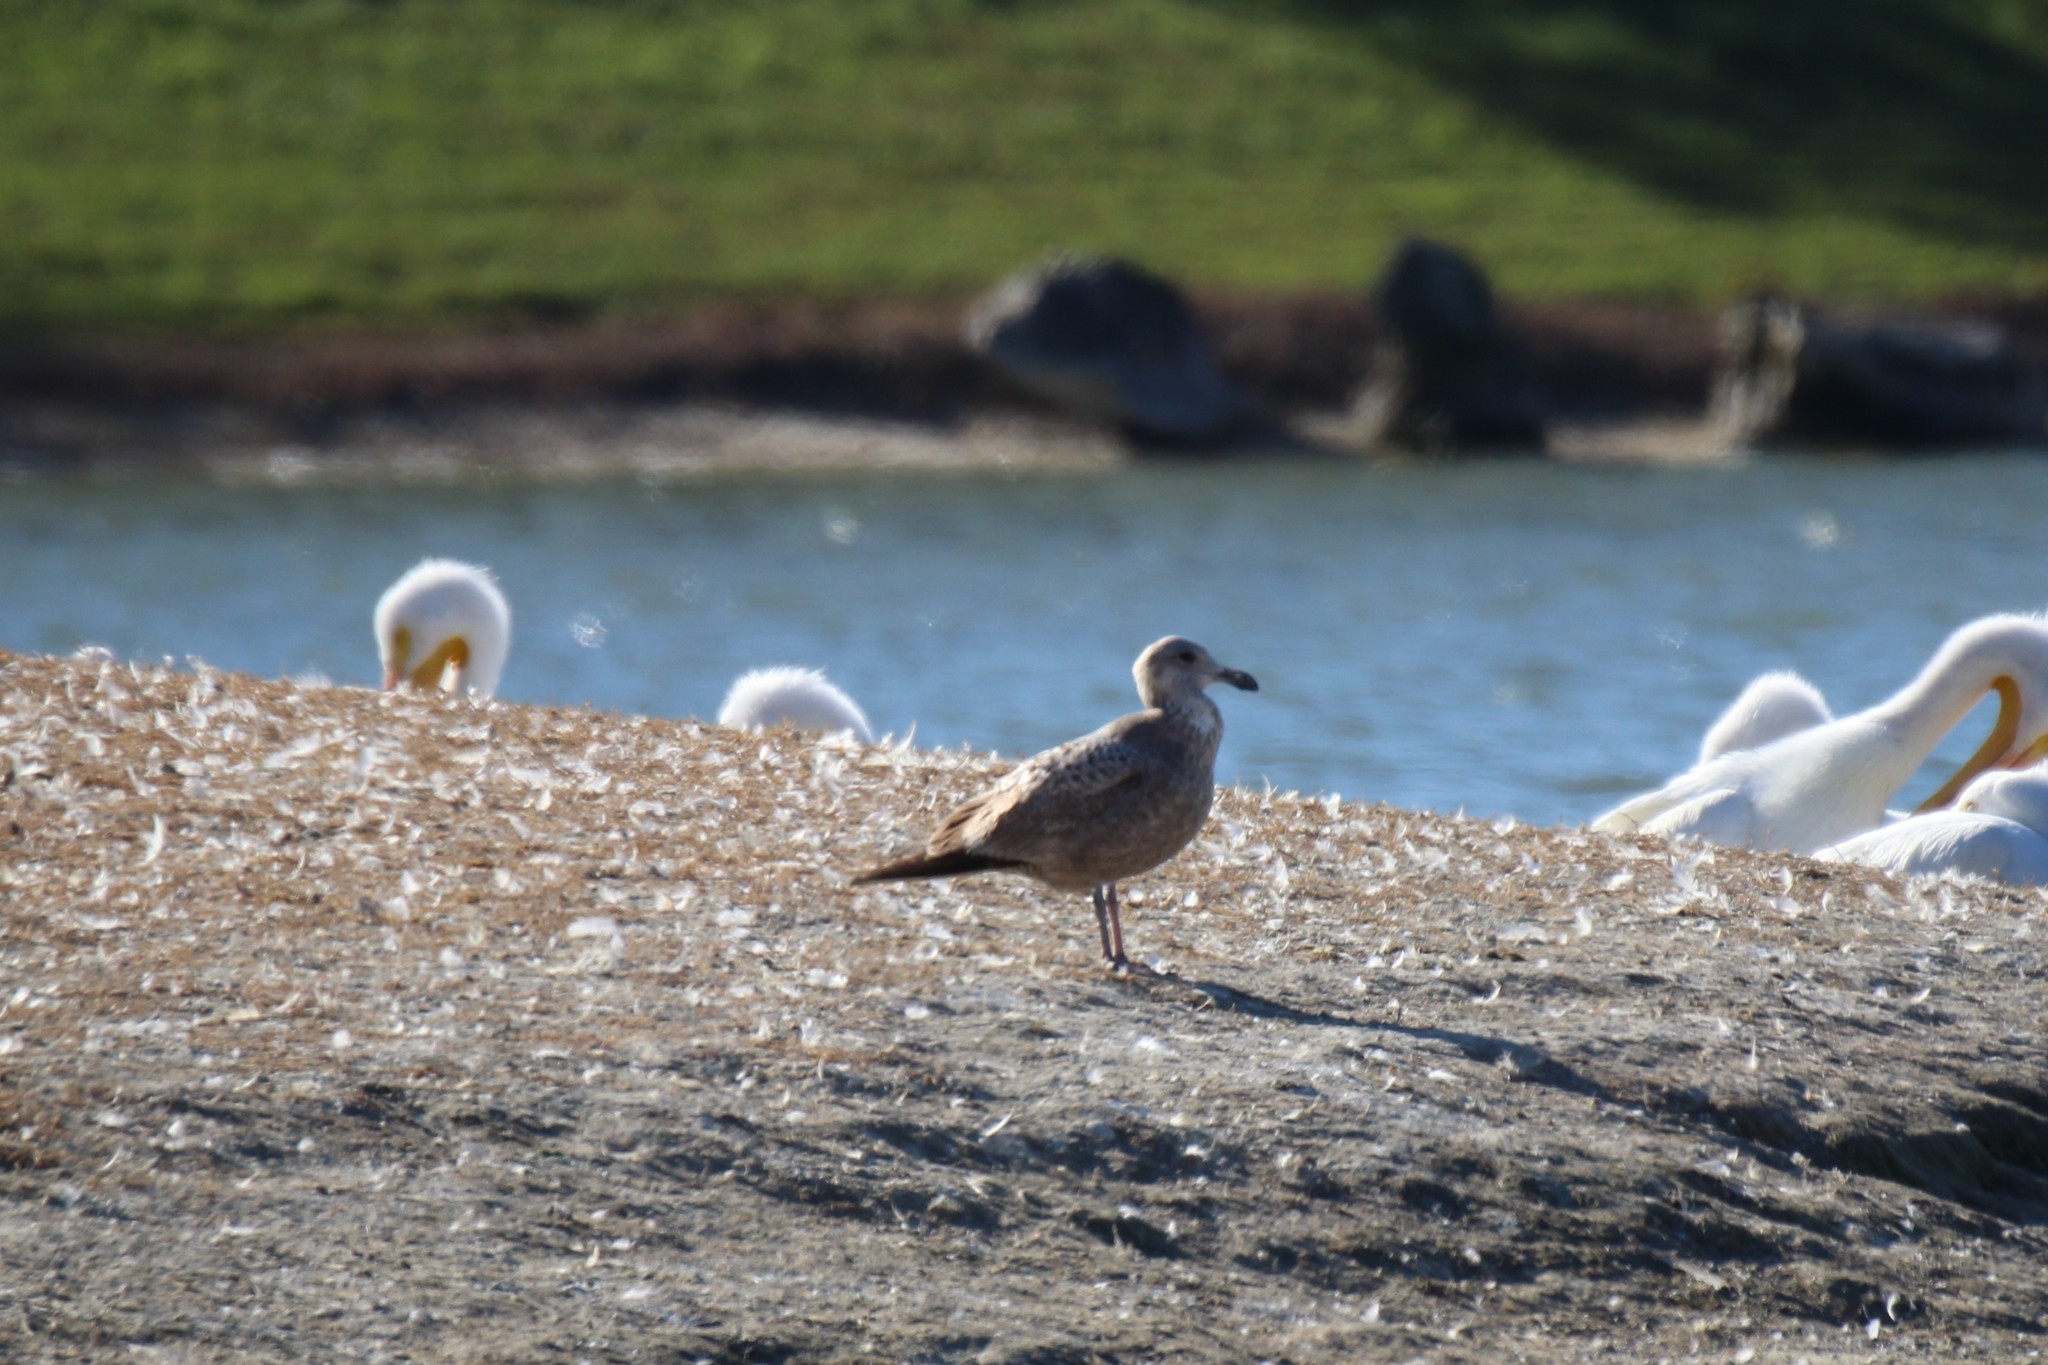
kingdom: Animalia
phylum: Chordata
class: Aves
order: Charadriiformes
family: Laridae
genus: Larus
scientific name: Larus argentatus
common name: Herring gull
